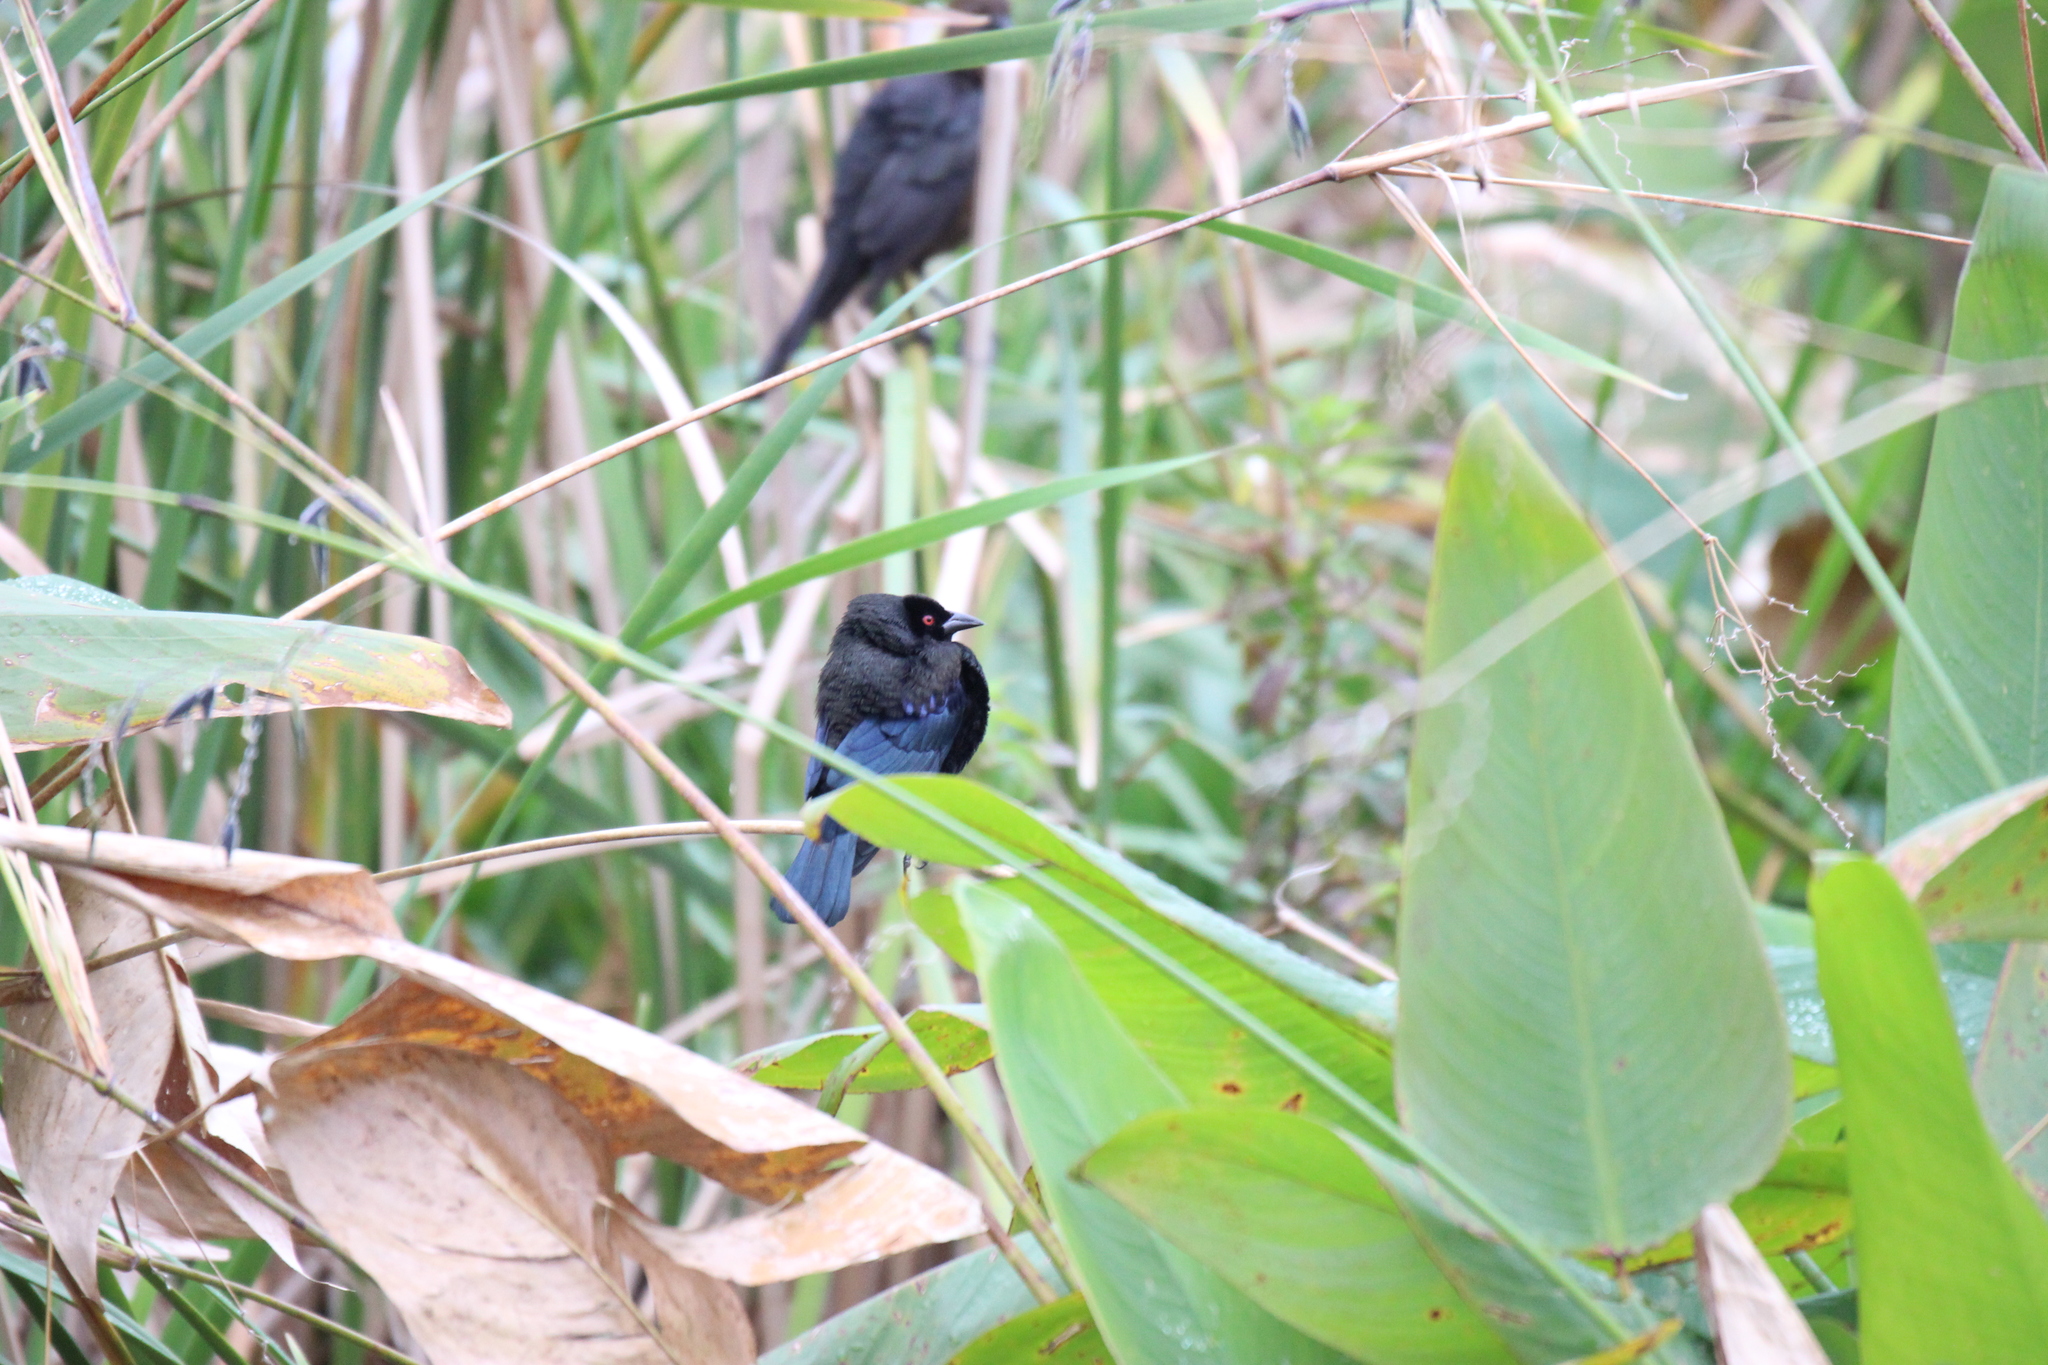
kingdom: Animalia
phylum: Chordata
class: Aves
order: Passeriformes
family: Icteridae
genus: Molothrus
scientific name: Molothrus aeneus
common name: Bronzed cowbird
